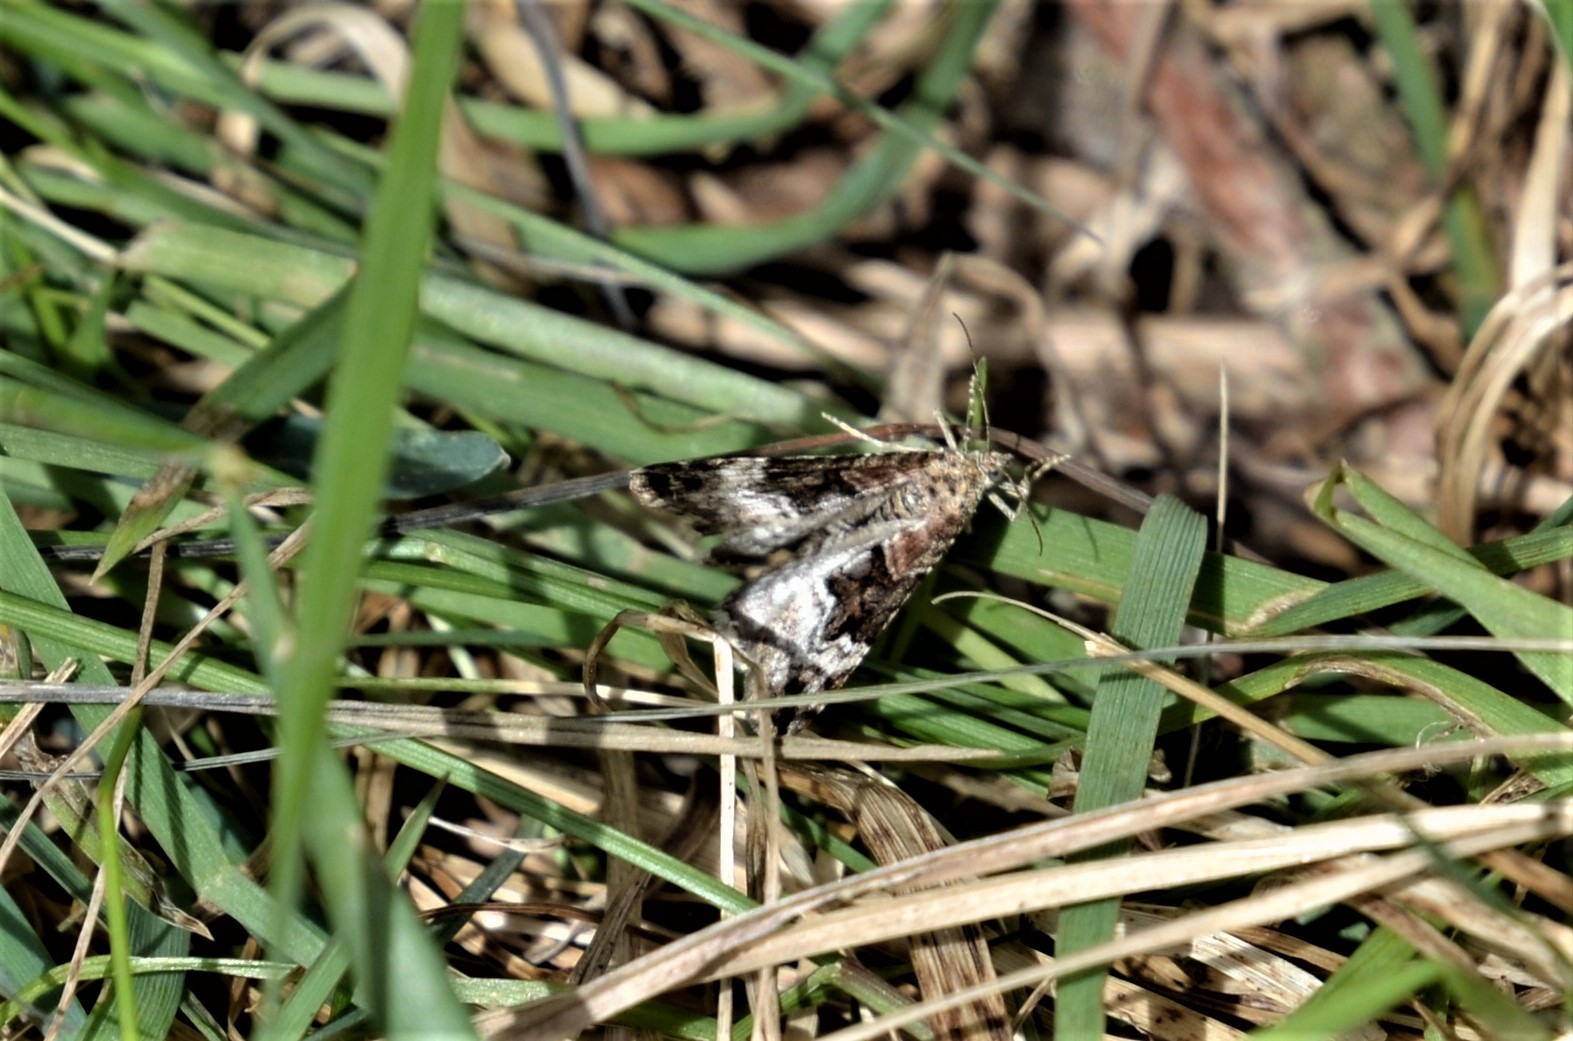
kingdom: Animalia
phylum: Arthropoda
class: Insecta
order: Lepidoptera
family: Geometridae
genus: Xanthorhoe
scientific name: Xanthorhoe biriviata
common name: Balsam carpet
